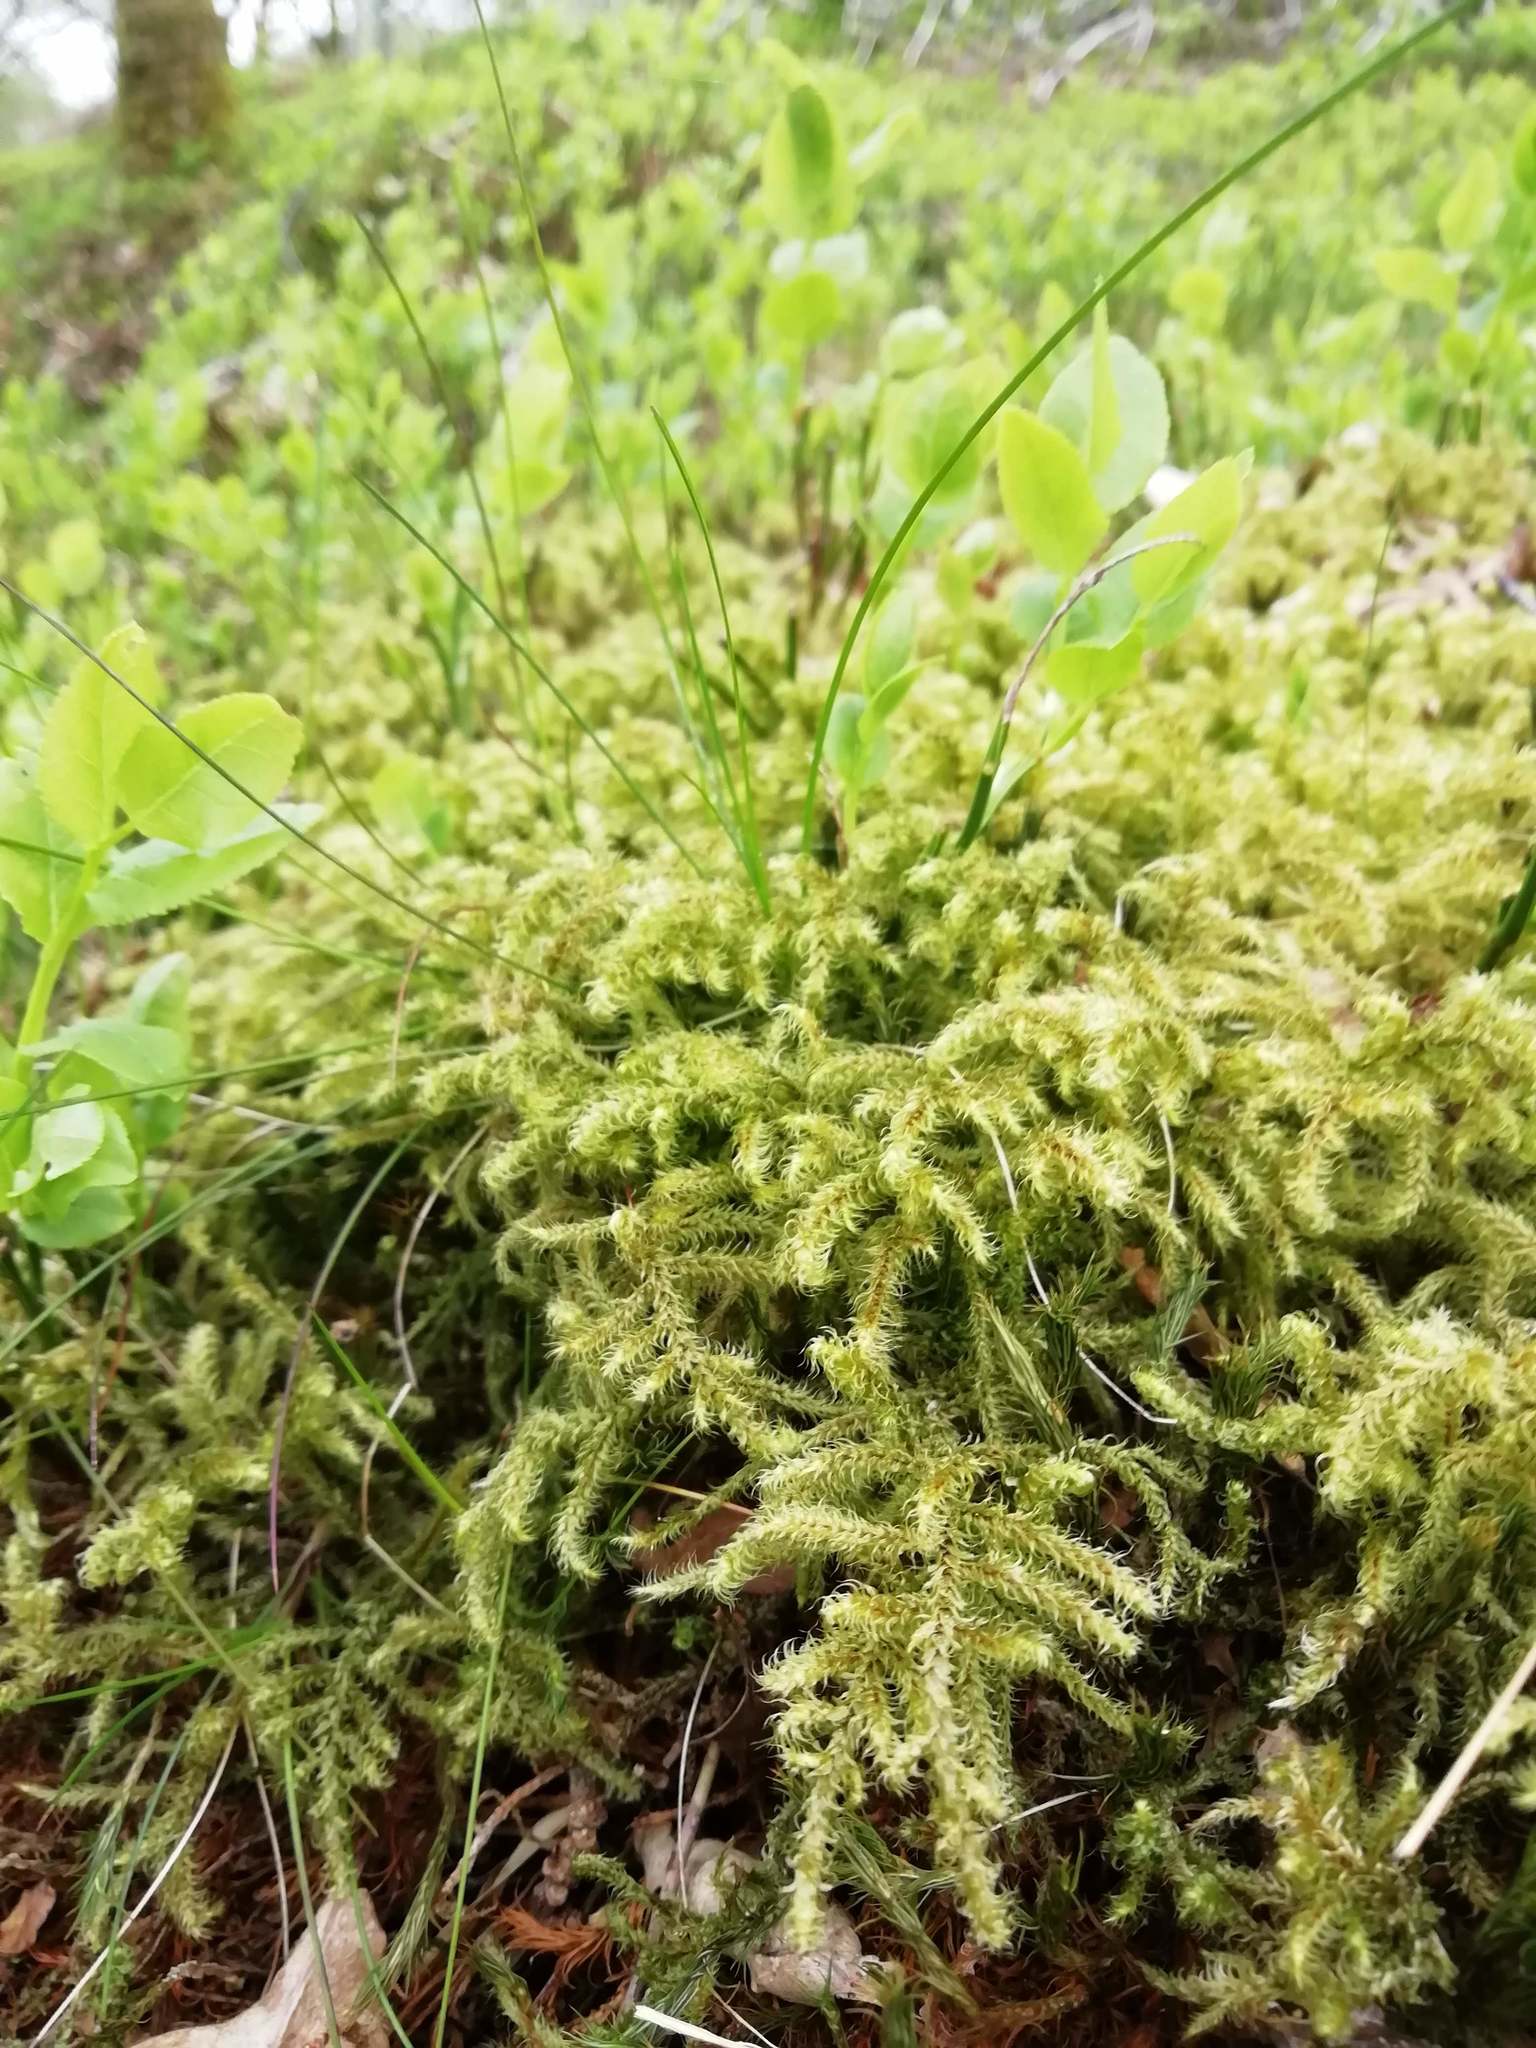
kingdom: Plantae
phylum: Bryophyta
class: Bryopsida
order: Hypnales
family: Hylocomiaceae
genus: Rhytidiadelphus
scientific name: Rhytidiadelphus loreus
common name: Lanky moss
